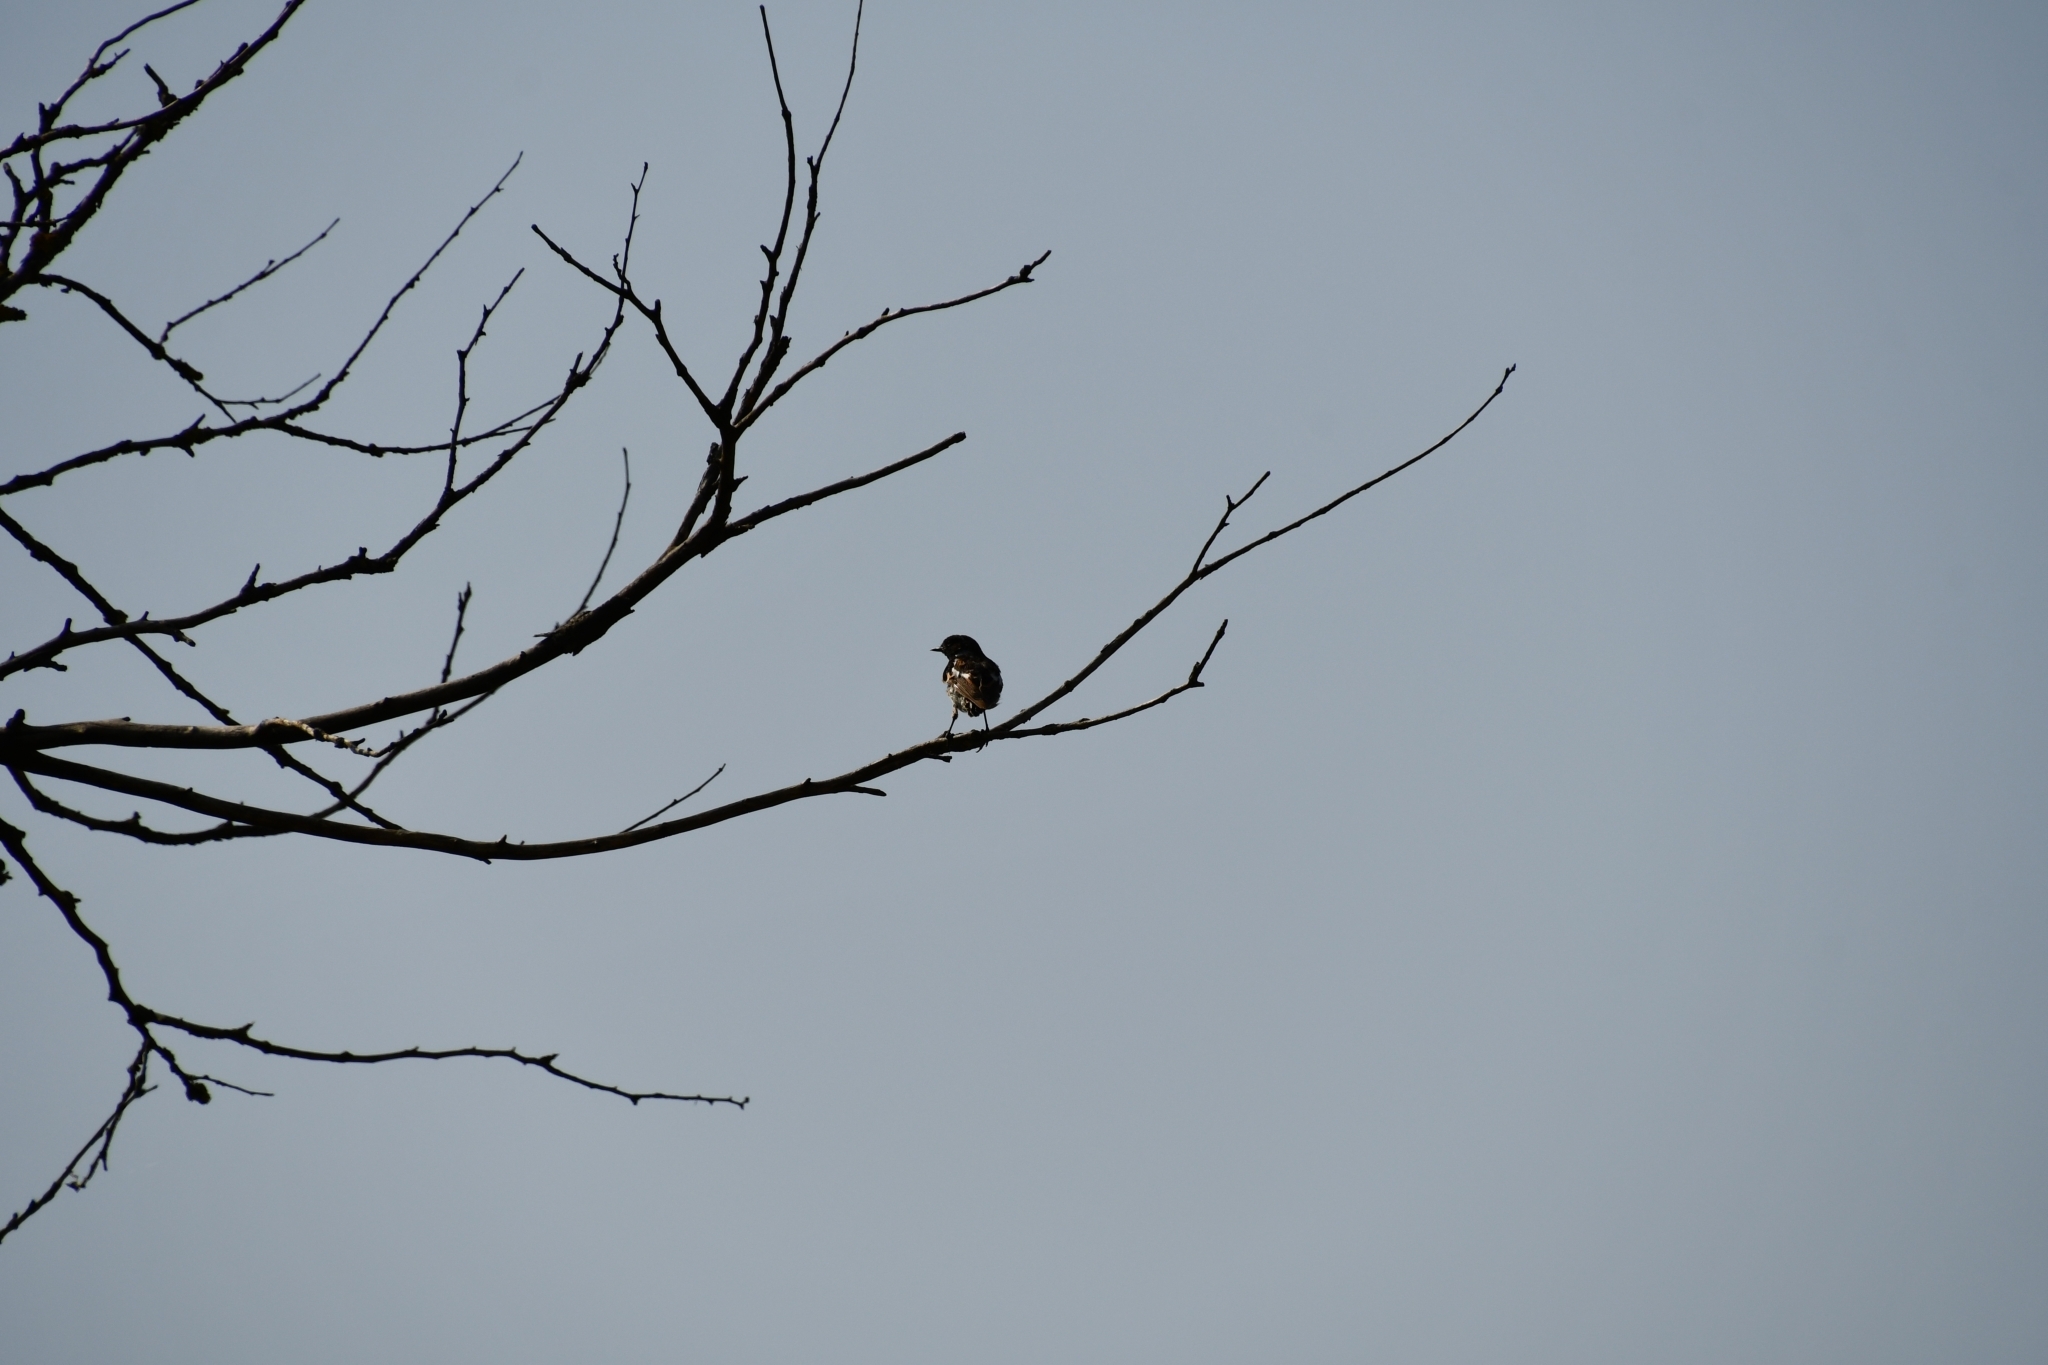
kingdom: Animalia
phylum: Chordata
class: Aves
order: Passeriformes
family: Muscicapidae
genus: Saxicola
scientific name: Saxicola maurus
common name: Siberian stonechat
